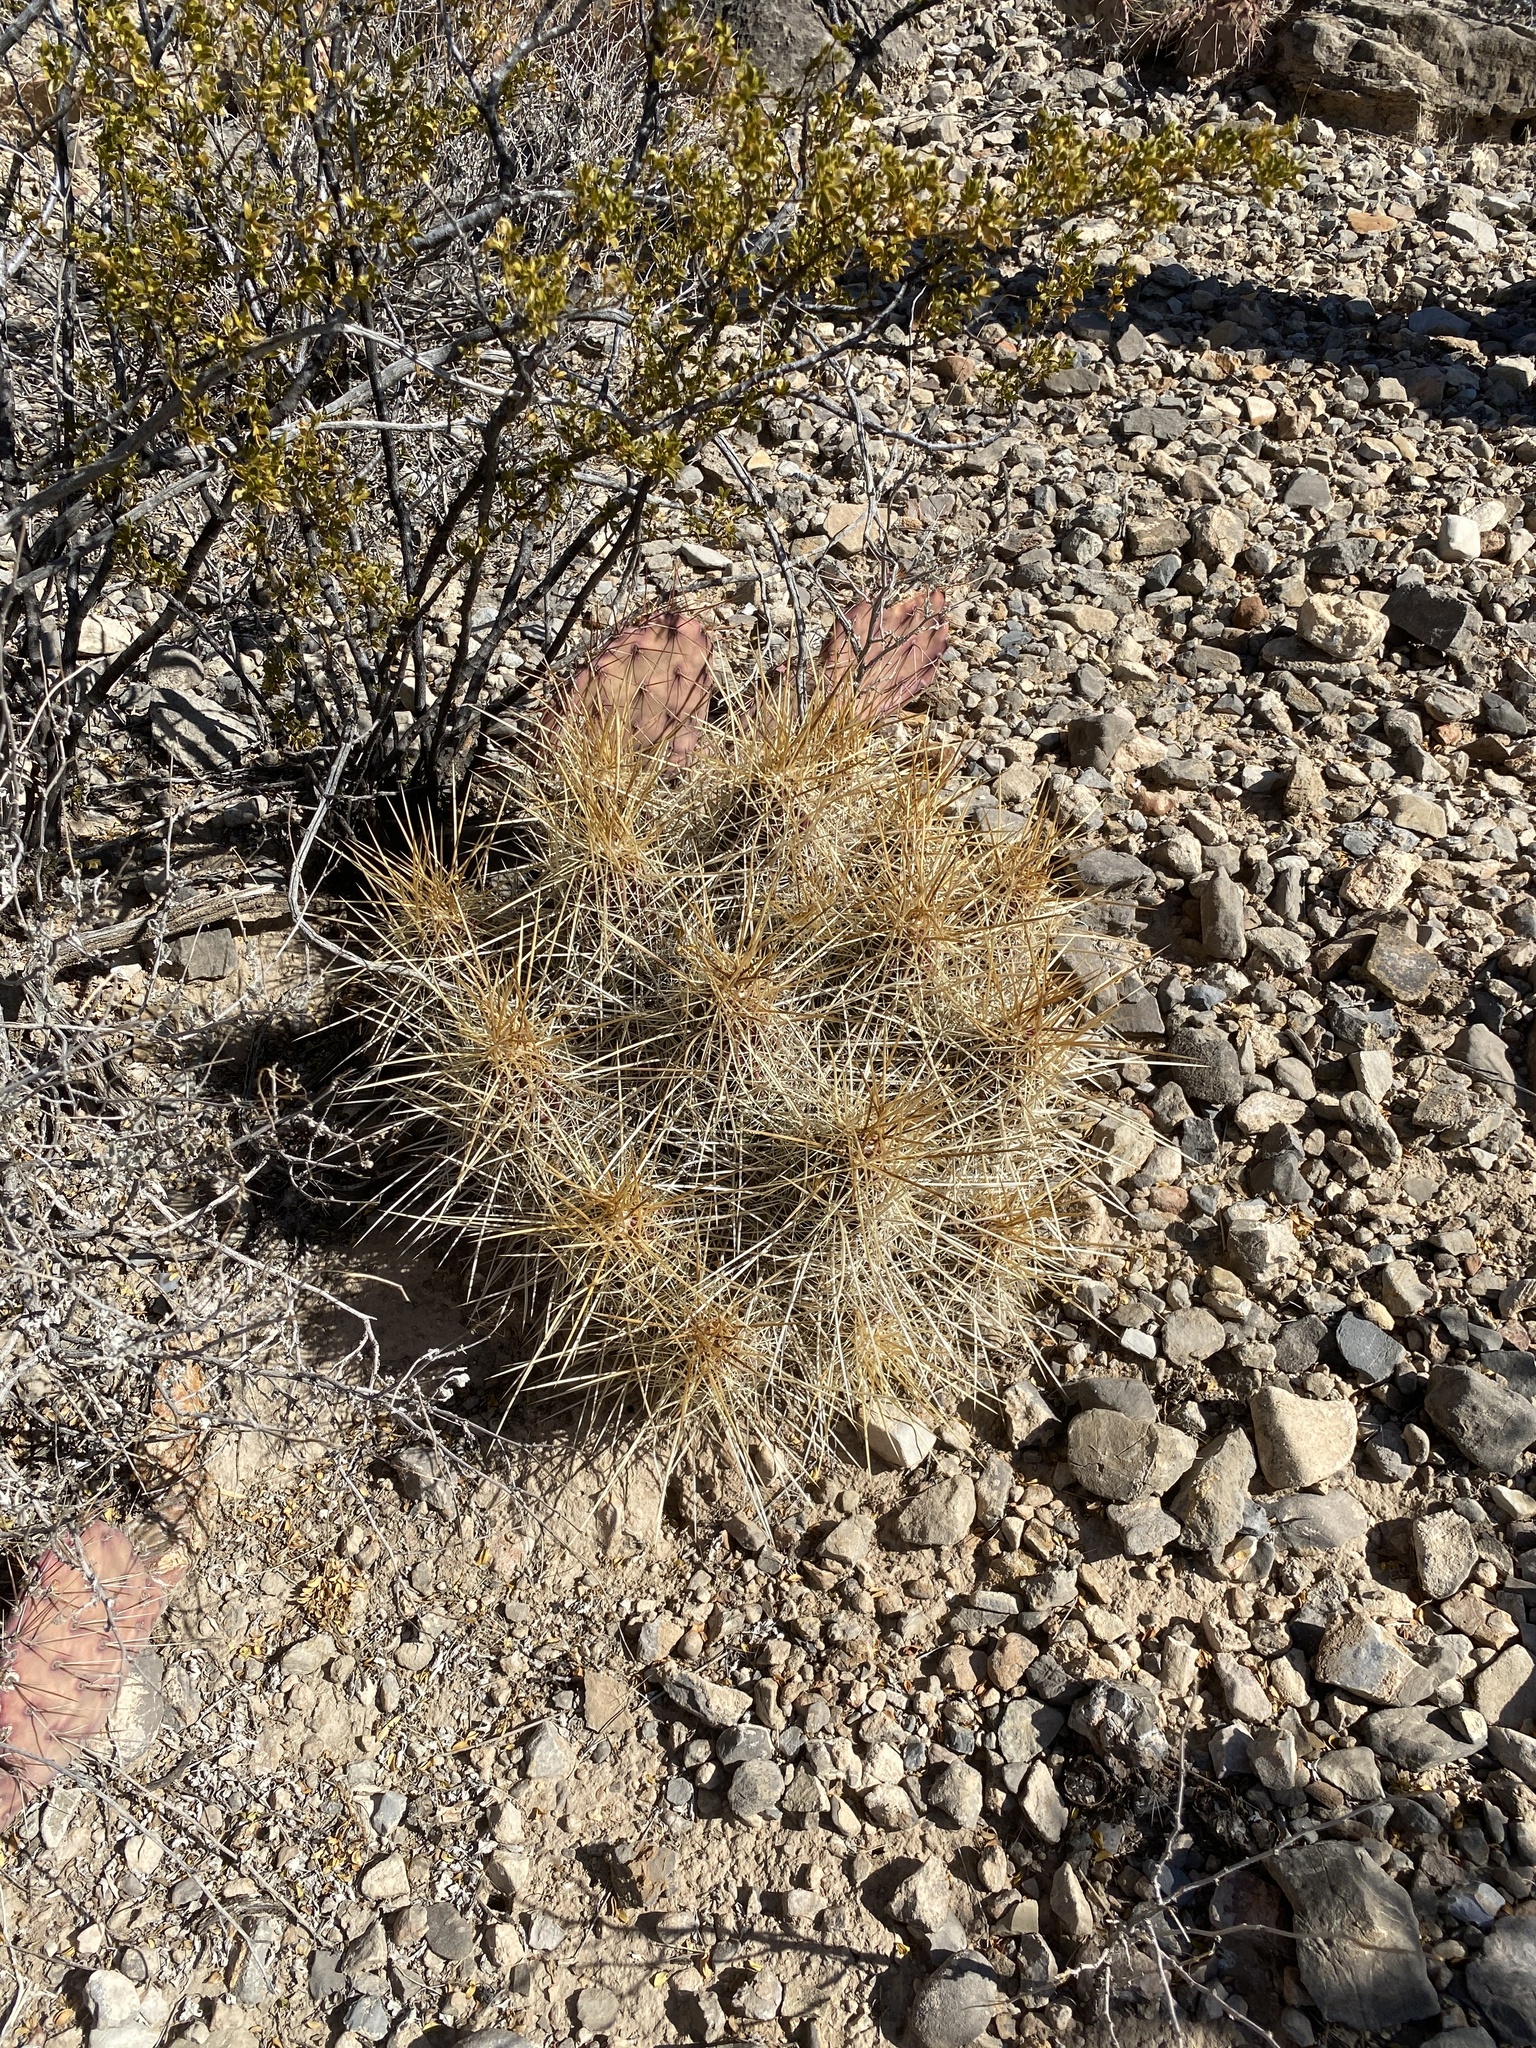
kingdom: Plantae
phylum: Tracheophyta
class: Magnoliopsida
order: Caryophyllales
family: Cactaceae
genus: Echinocereus
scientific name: Echinocereus stramineus
